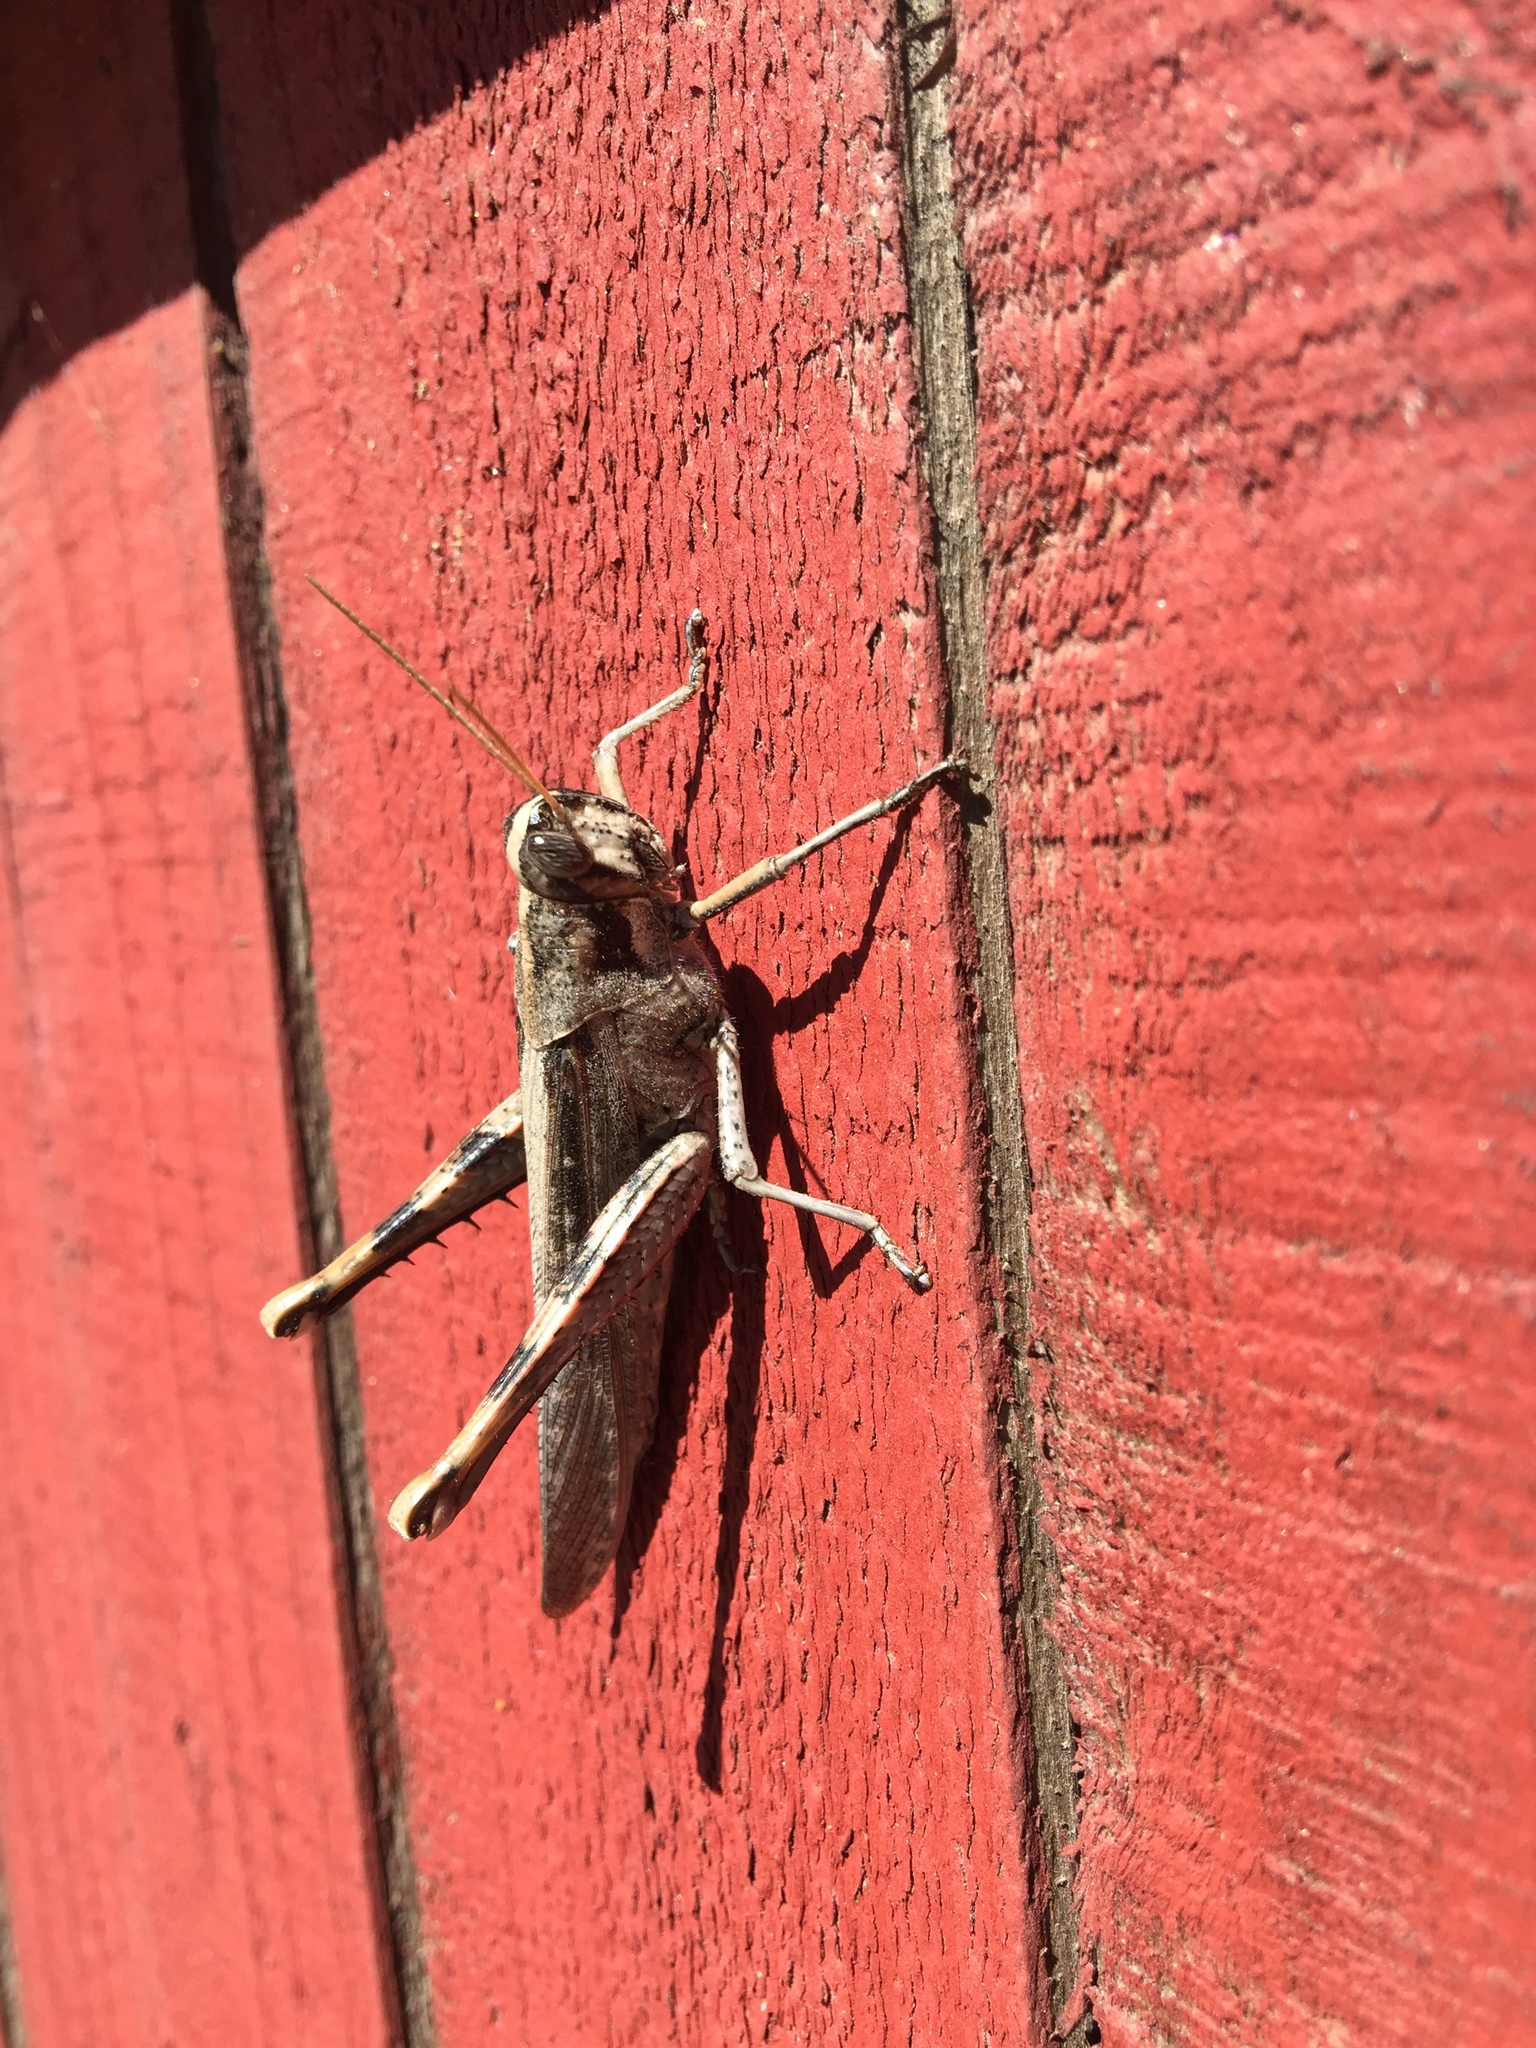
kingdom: Animalia
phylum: Arthropoda
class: Insecta
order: Orthoptera
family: Acrididae
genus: Schistocerca
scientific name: Schistocerca nitens
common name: Vagrant grasshopper
